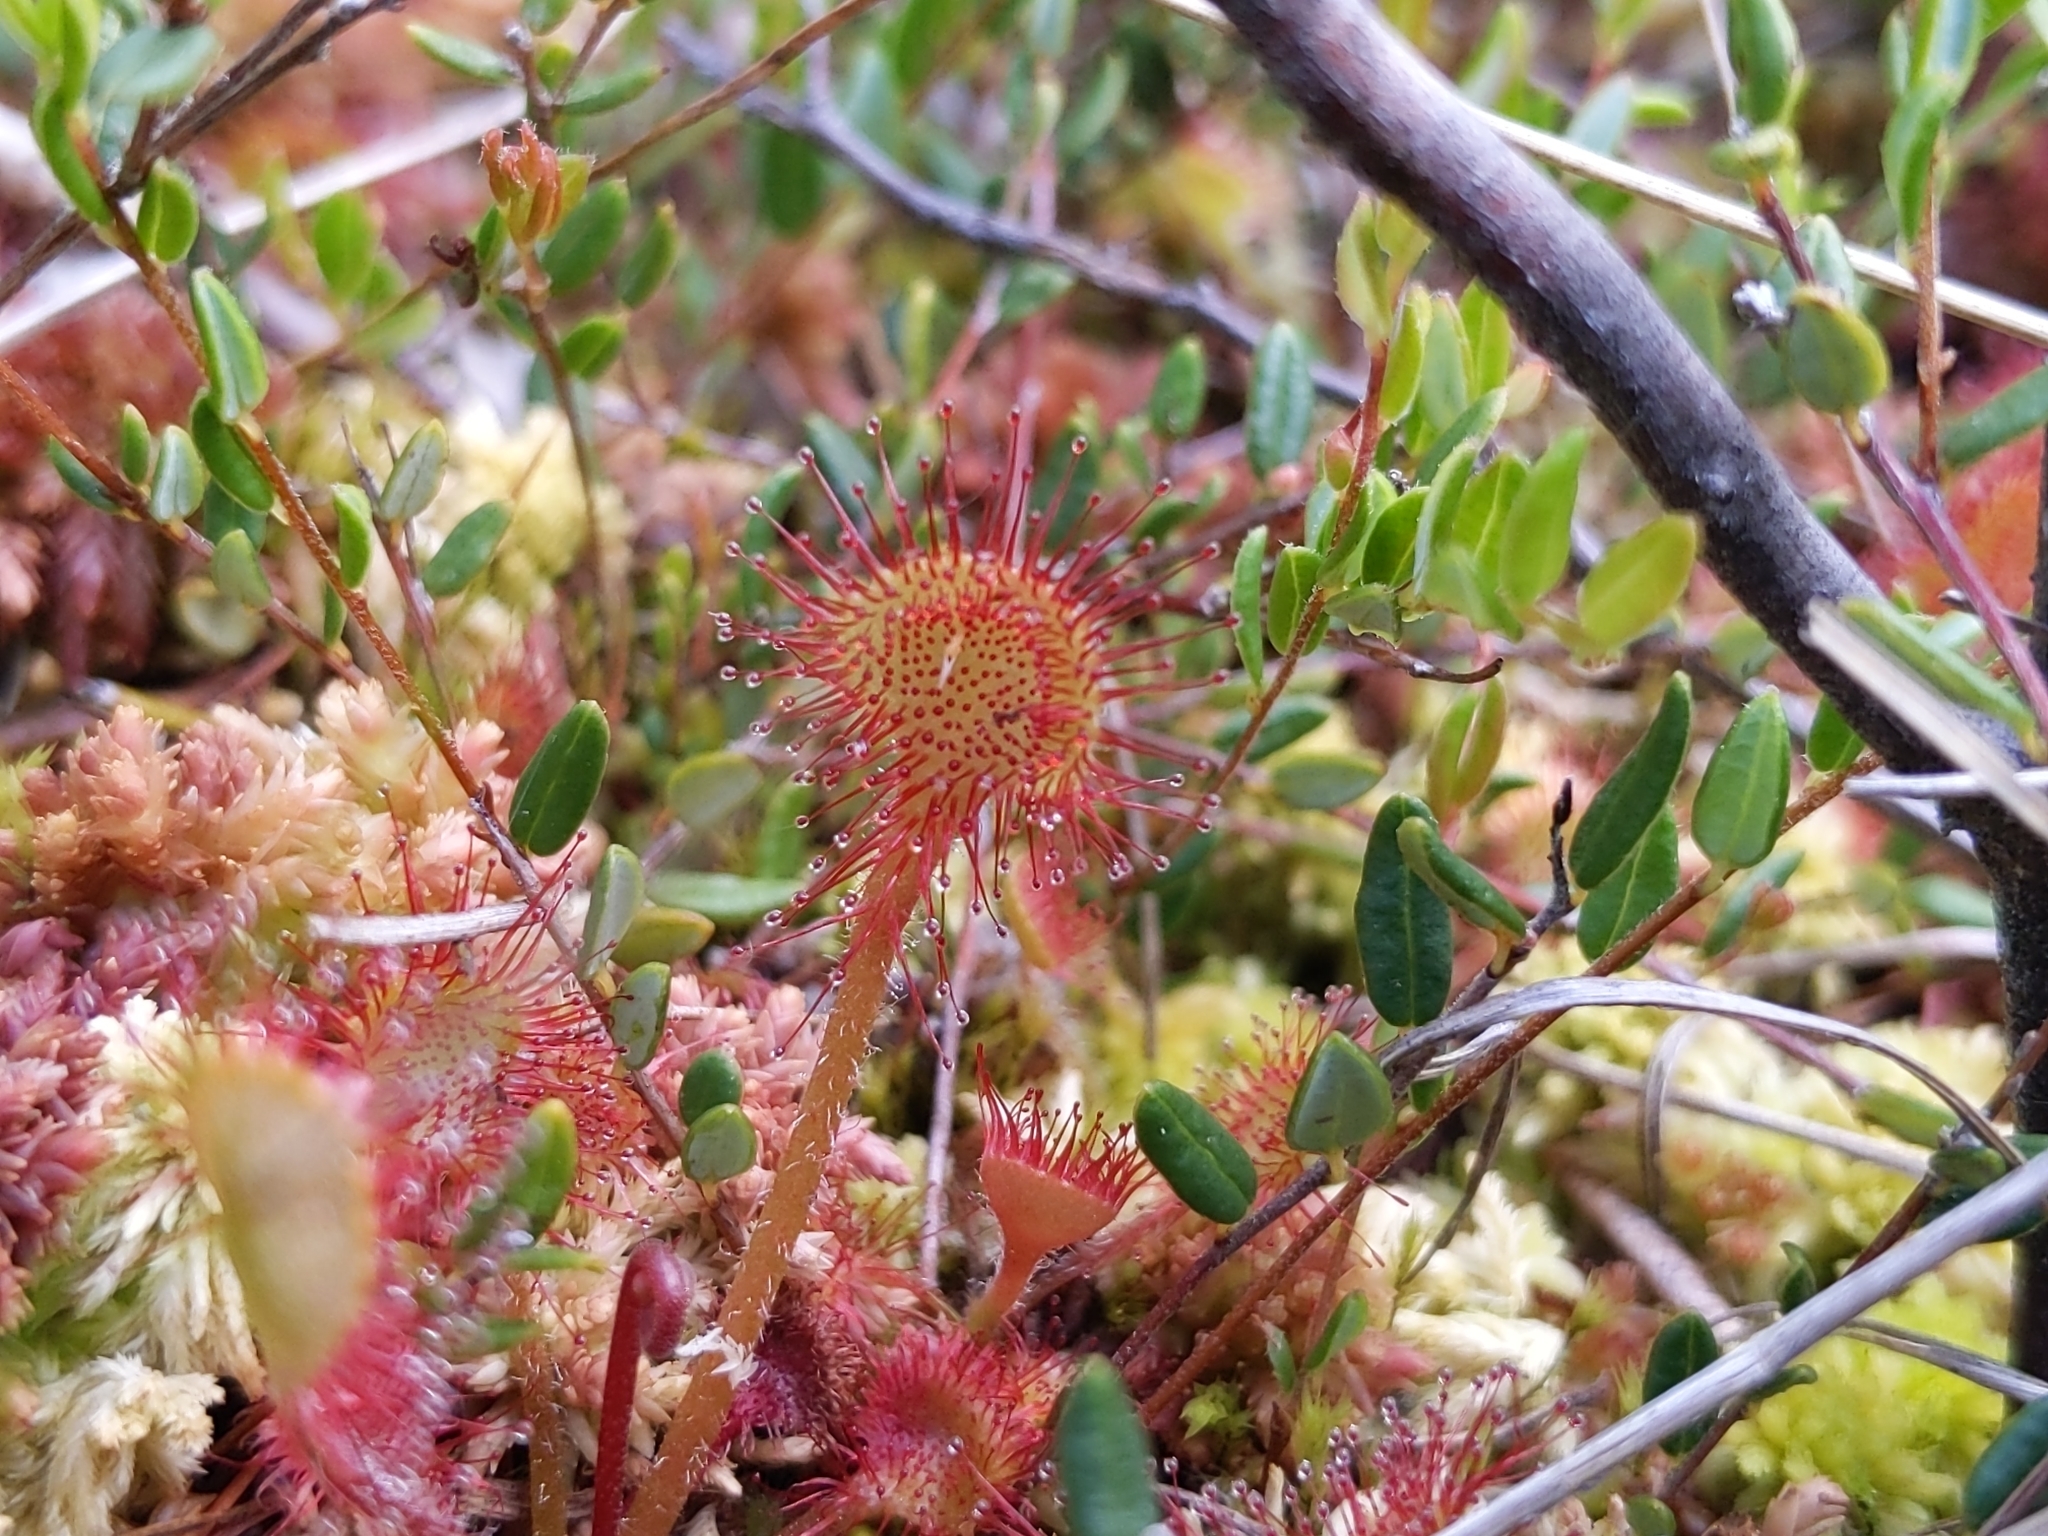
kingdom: Plantae
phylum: Tracheophyta
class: Magnoliopsida
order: Caryophyllales
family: Droseraceae
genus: Drosera
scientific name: Drosera rotundifolia
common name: Round-leaved sundew
